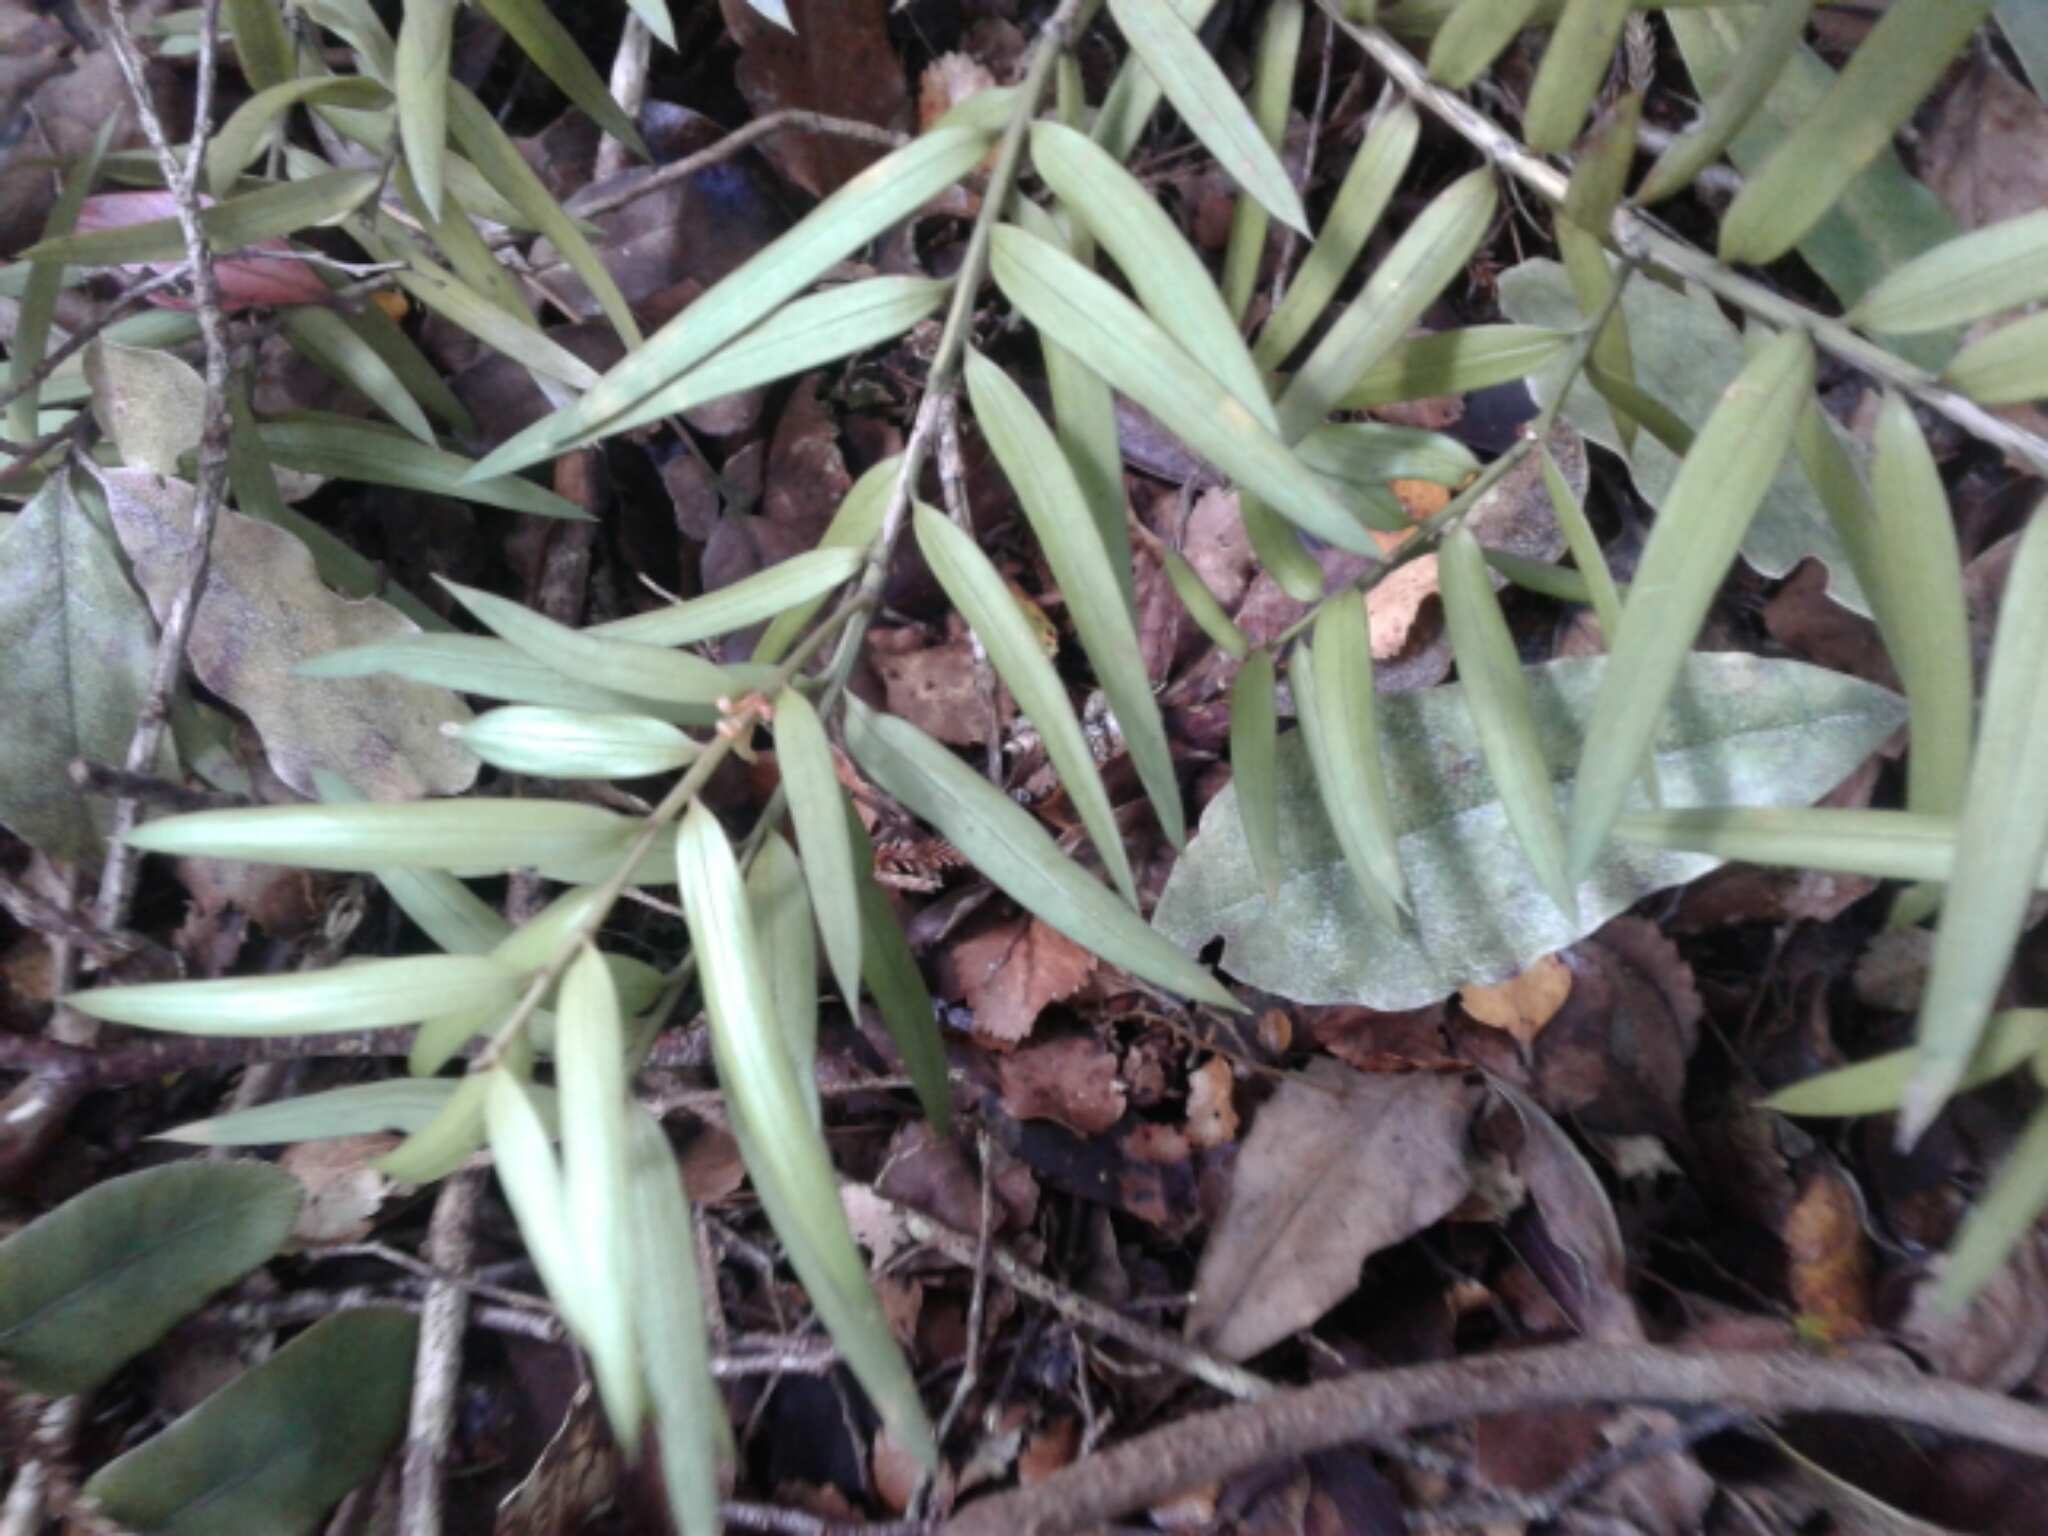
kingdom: Plantae
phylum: Tracheophyta
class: Pinopsida
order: Pinales
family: Podocarpaceae
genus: Podocarpus
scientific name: Podocarpus totara
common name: Totara
